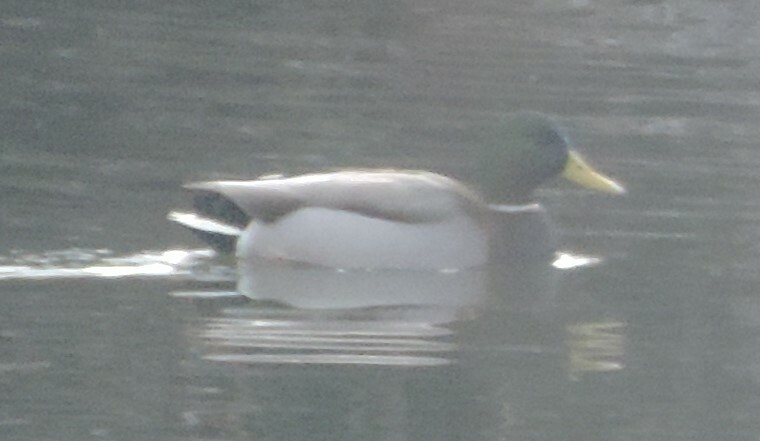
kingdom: Animalia
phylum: Chordata
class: Aves
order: Anseriformes
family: Anatidae
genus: Anas
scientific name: Anas platyrhynchos
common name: Mallard
